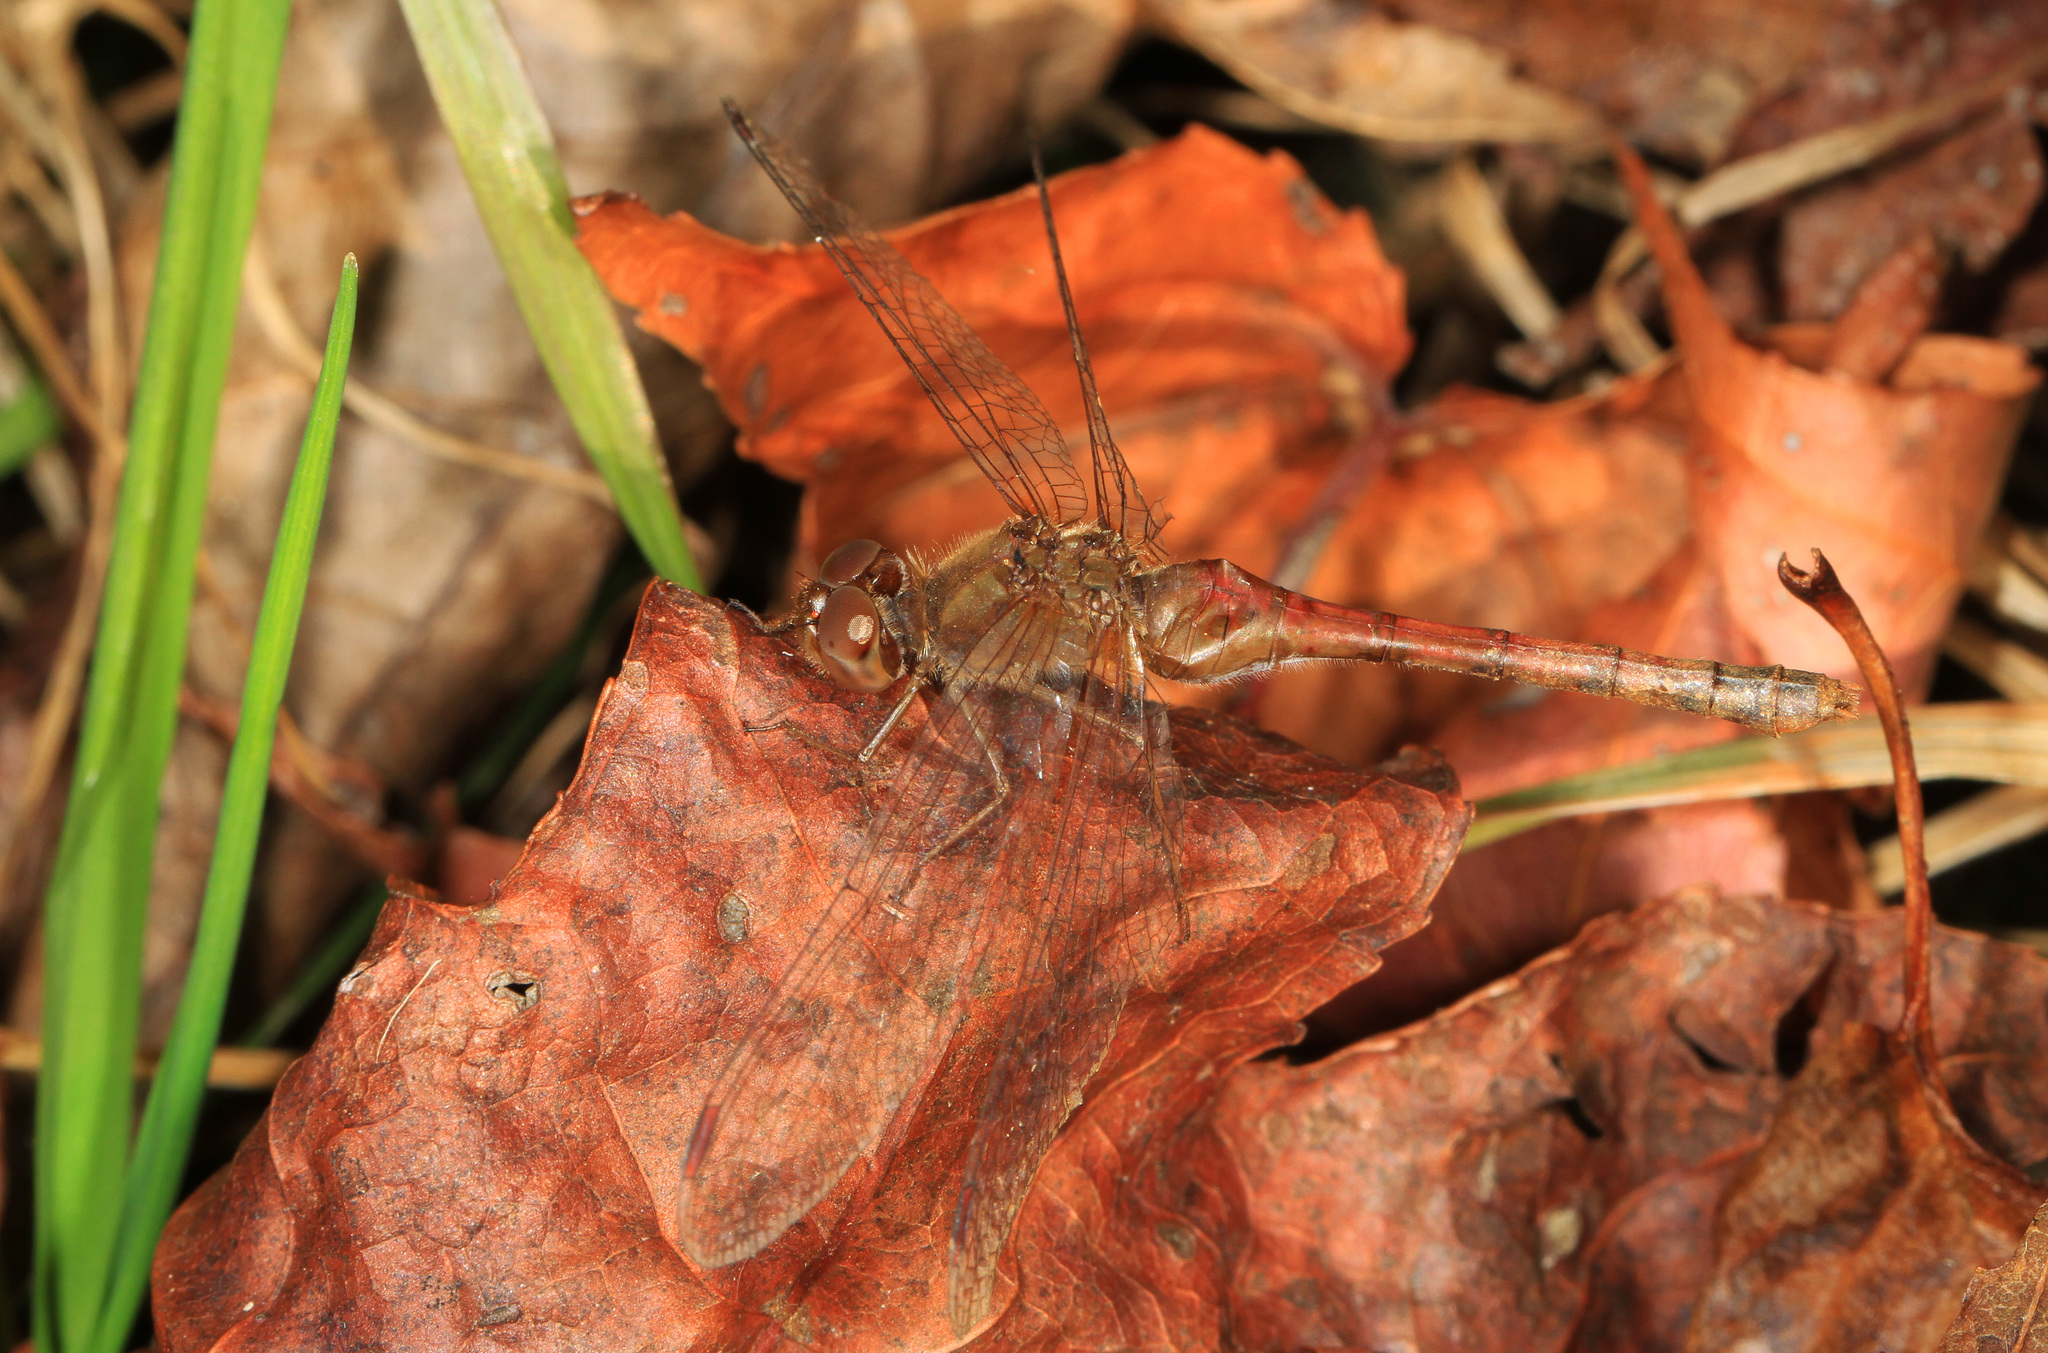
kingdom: Animalia
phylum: Arthropoda
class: Insecta
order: Odonata
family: Libellulidae
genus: Sympetrum
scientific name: Sympetrum vicinum
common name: Autumn meadowhawk
